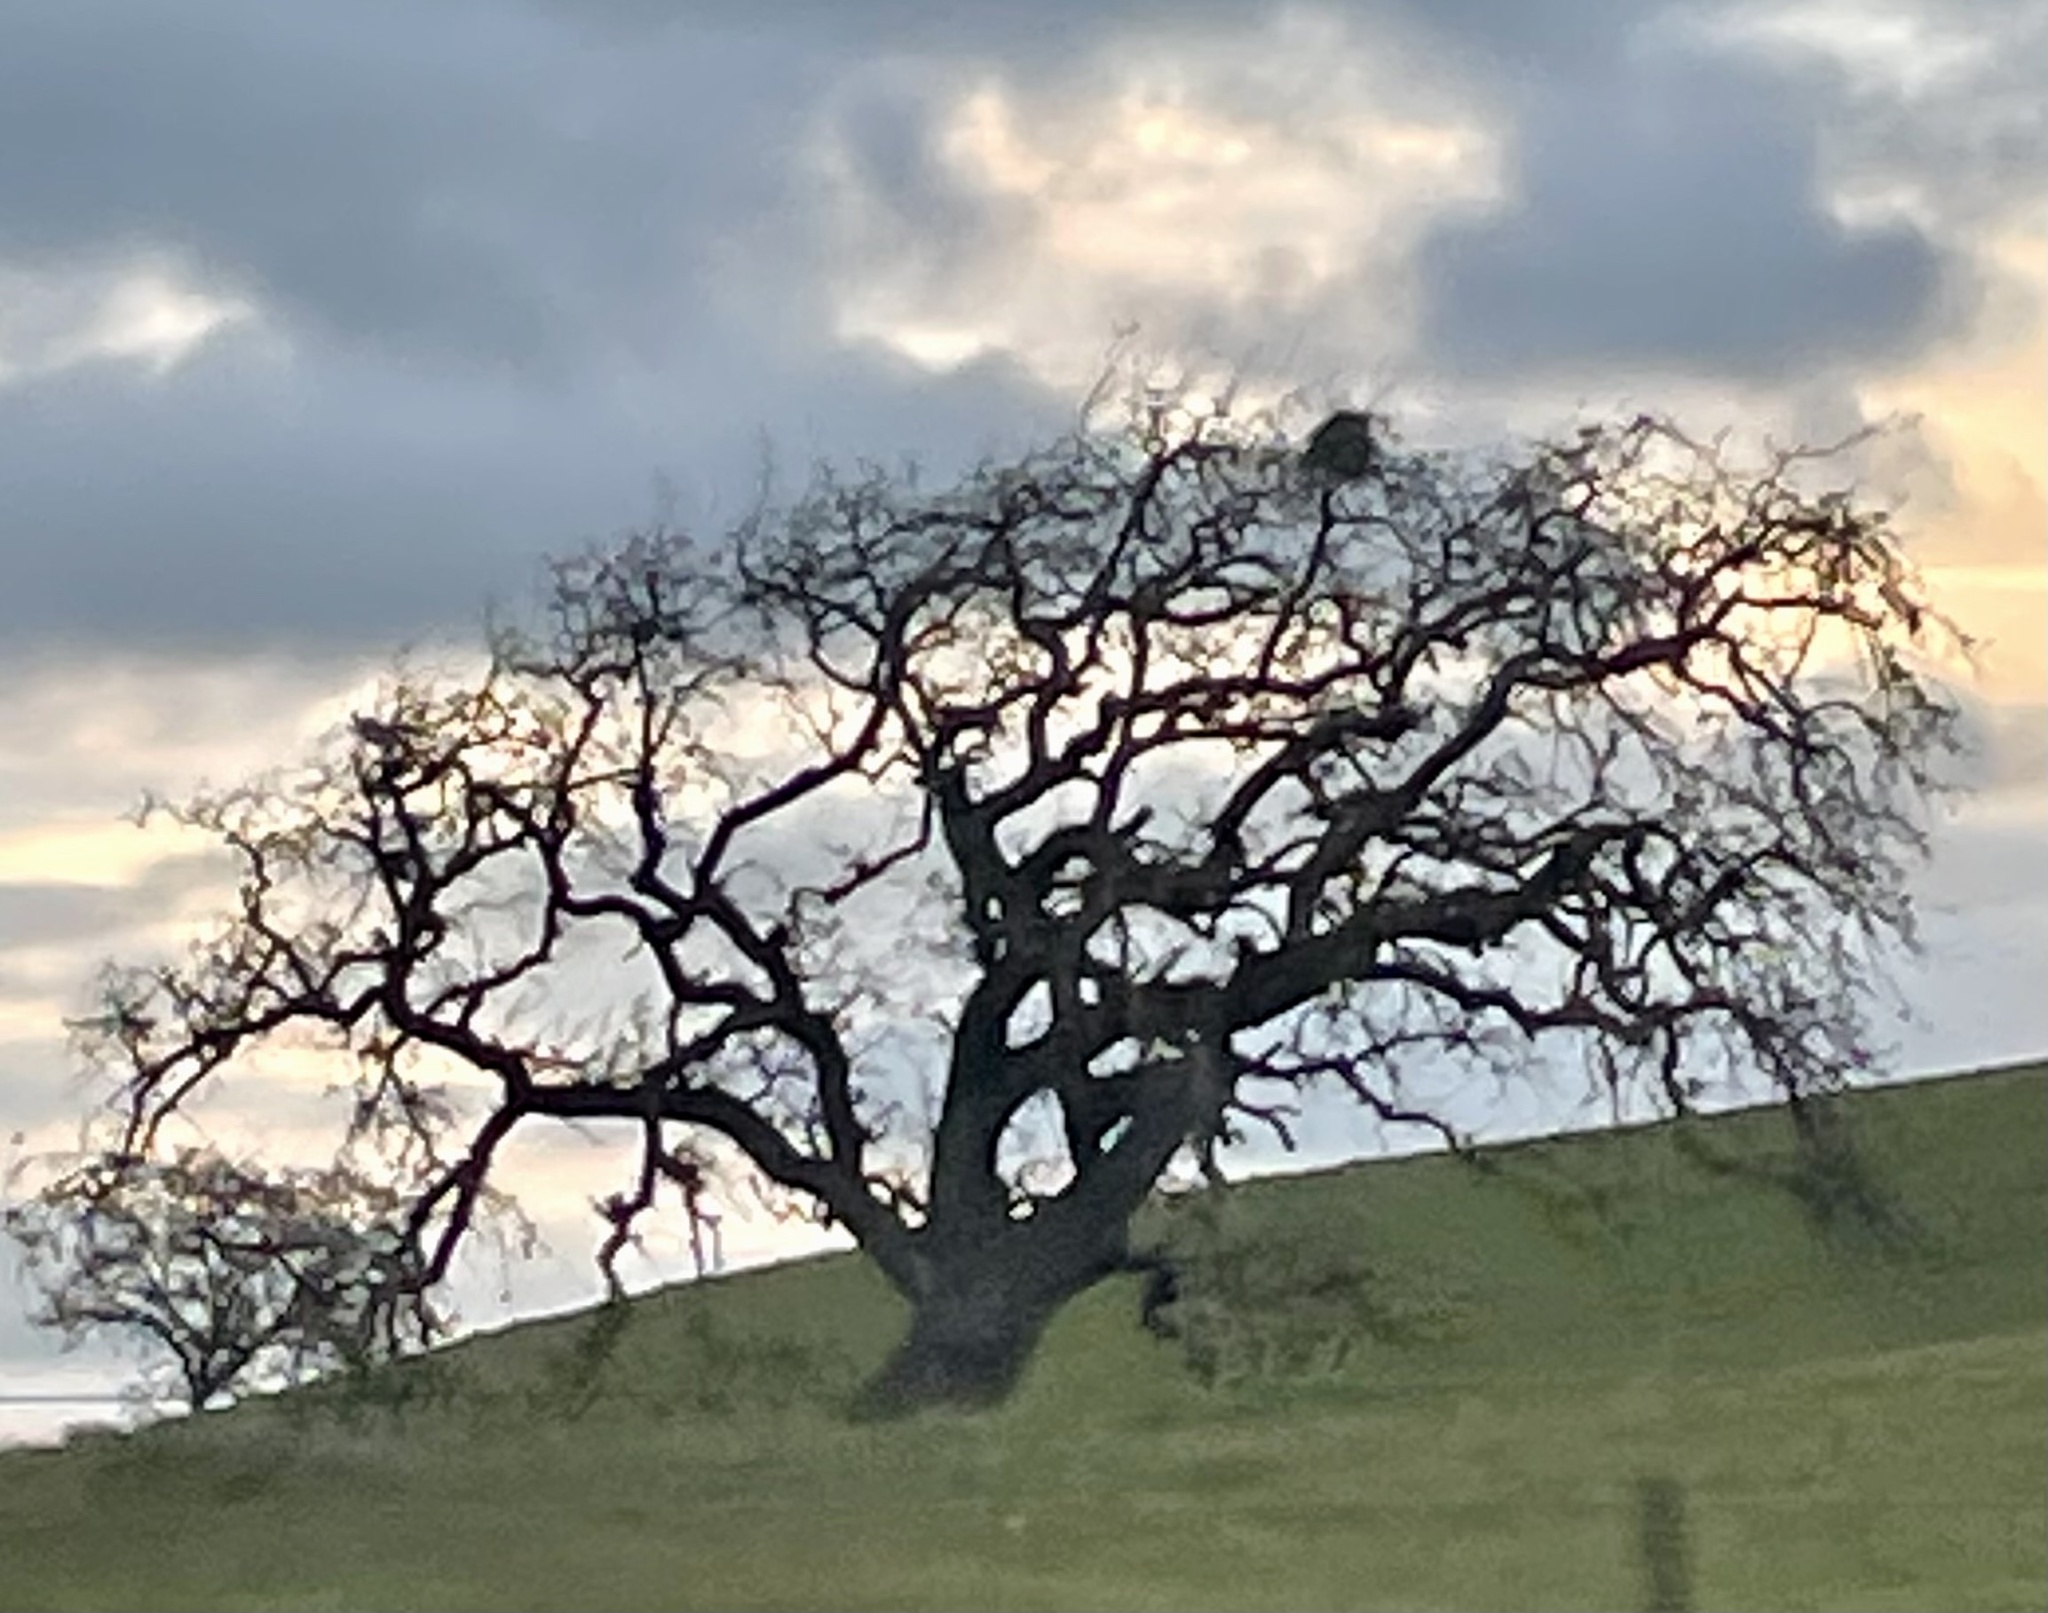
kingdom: Plantae
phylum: Tracheophyta
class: Magnoliopsida
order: Fagales
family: Fagaceae
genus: Quercus
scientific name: Quercus
